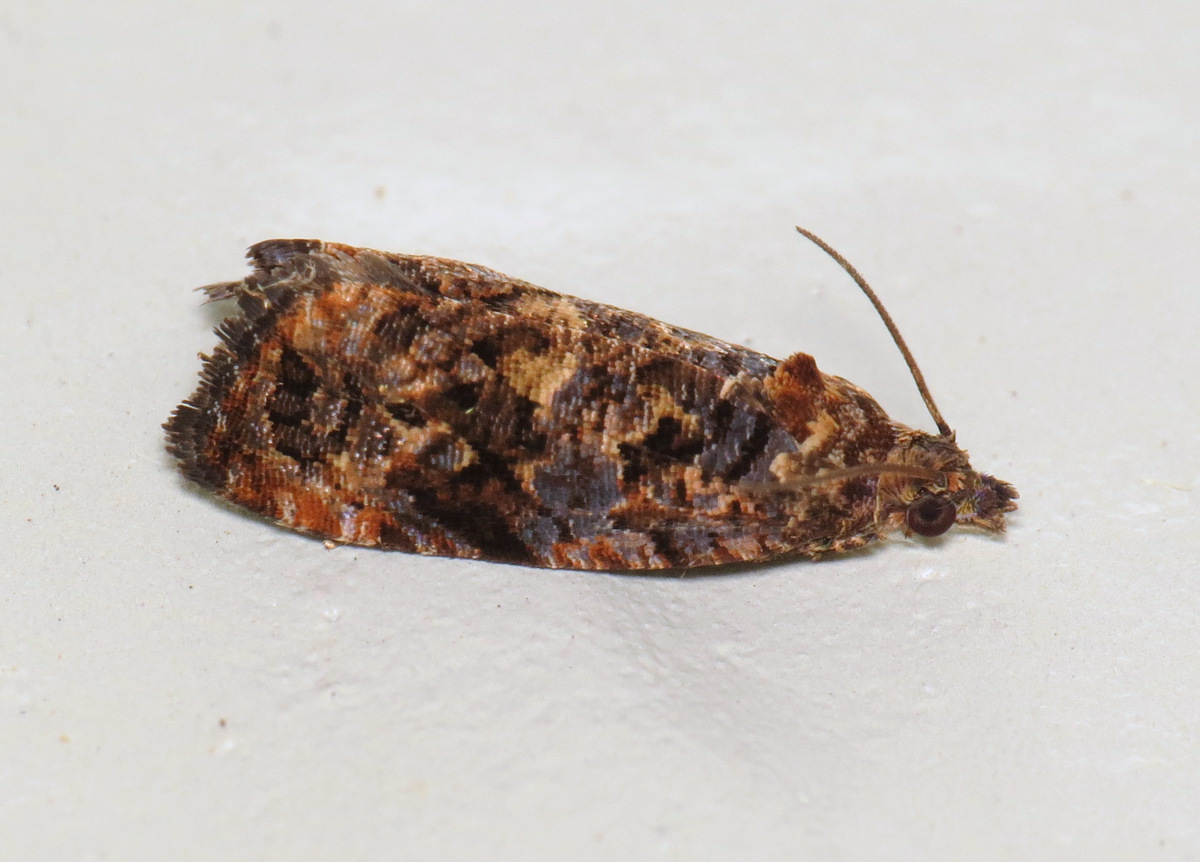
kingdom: Animalia
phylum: Arthropoda
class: Insecta
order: Lepidoptera
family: Tortricidae
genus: Endothenia
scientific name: Endothenia hebesana
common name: Verbena bud moth
